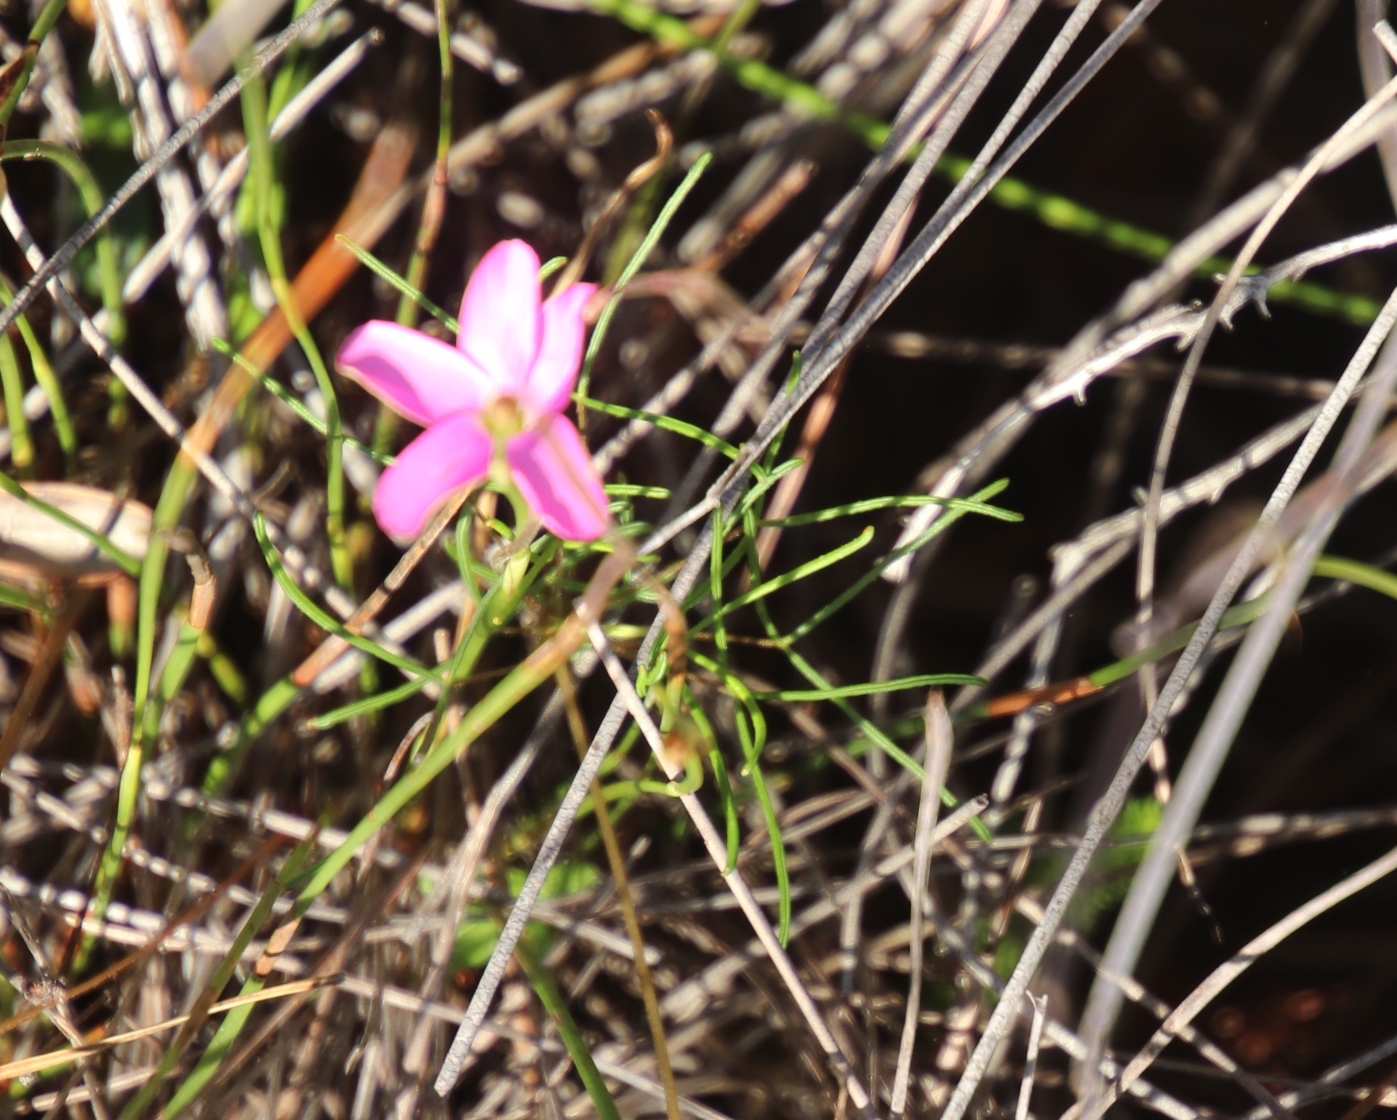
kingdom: Plantae
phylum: Tracheophyta
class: Magnoliopsida
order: Oxalidales
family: Oxalidaceae
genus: Oxalis
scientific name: Oxalis polyphylla
